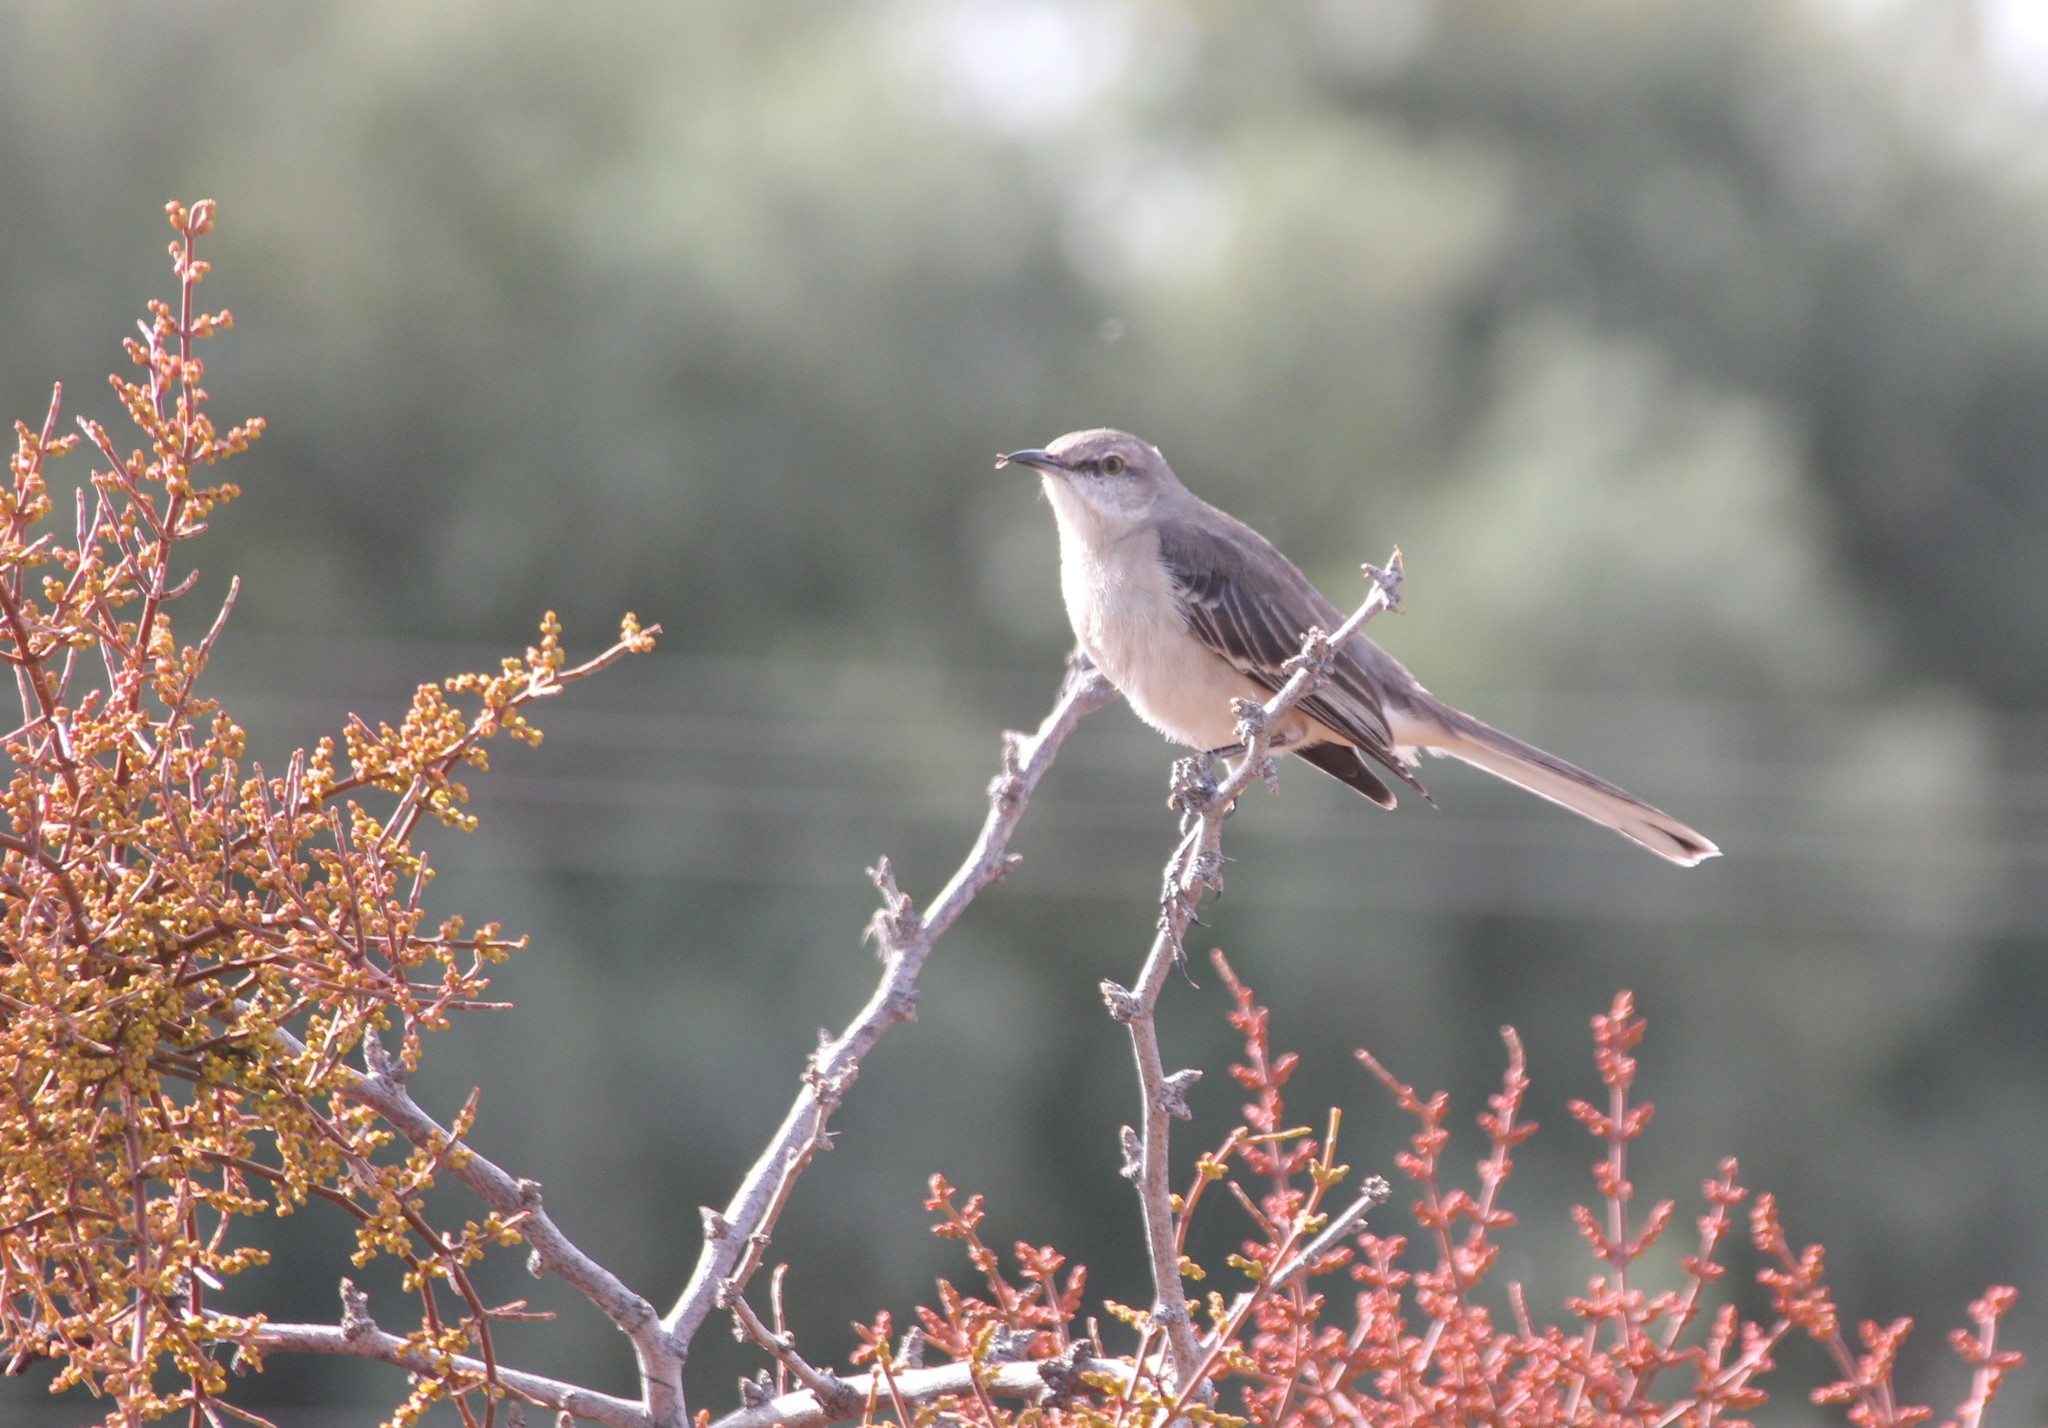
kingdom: Animalia
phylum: Chordata
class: Aves
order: Passeriformes
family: Mimidae
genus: Mimus
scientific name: Mimus polyglottos
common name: Northern mockingbird
